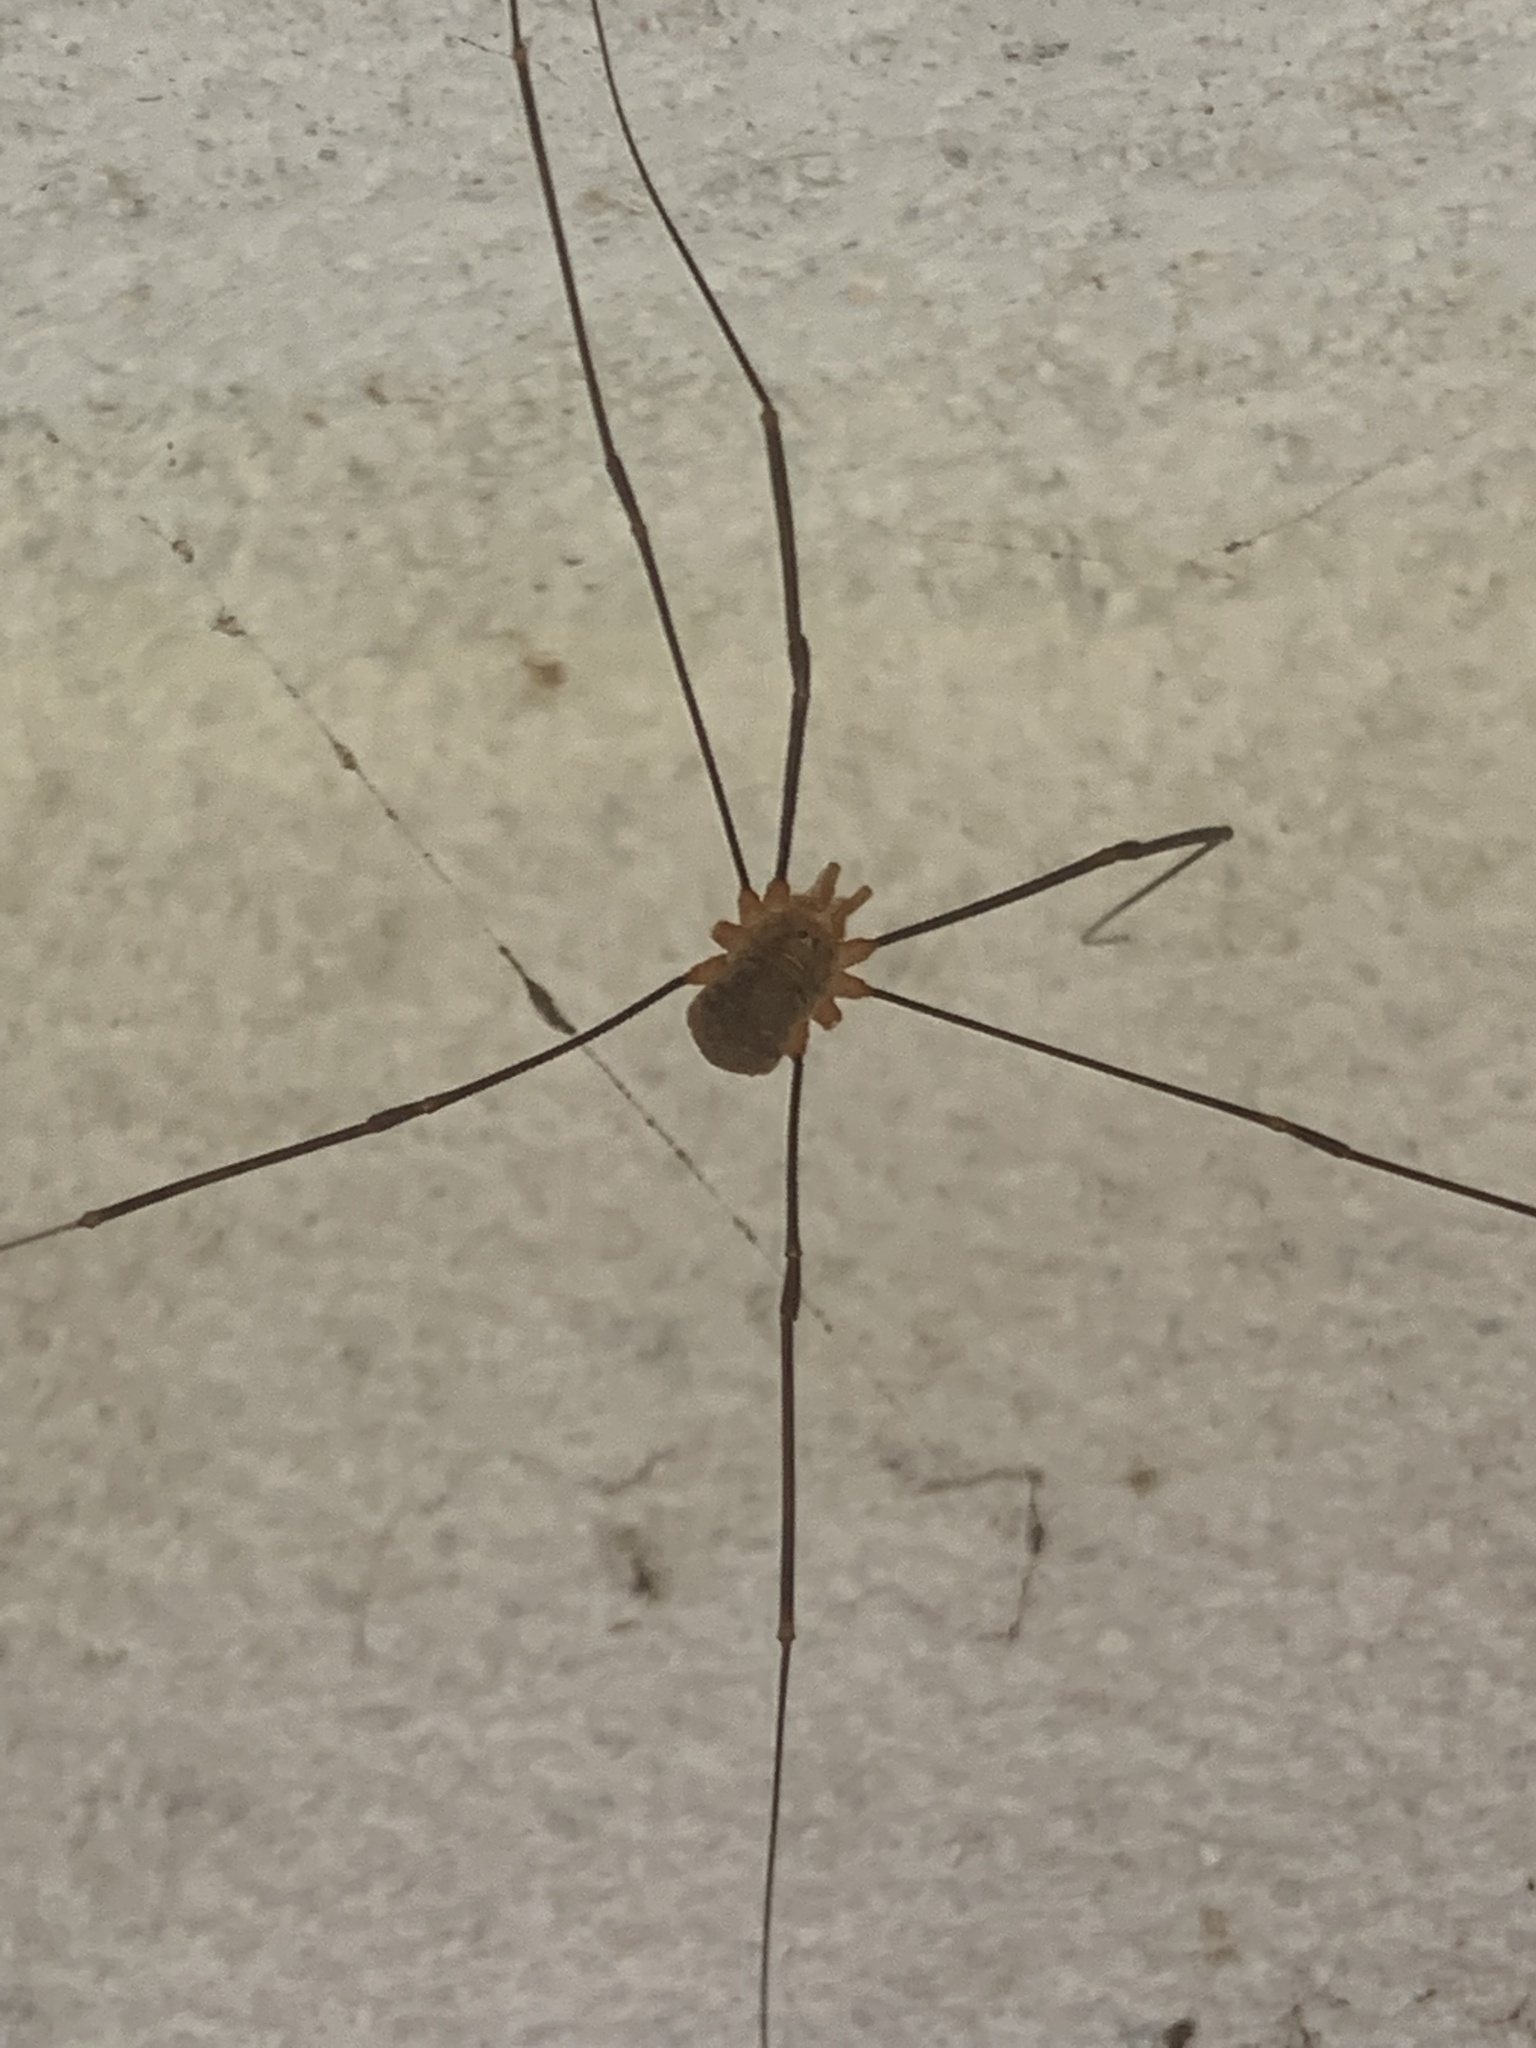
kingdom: Animalia
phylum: Arthropoda
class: Arachnida
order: Opiliones
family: Phalangiidae
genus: Opilio
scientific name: Opilio canestrinii
